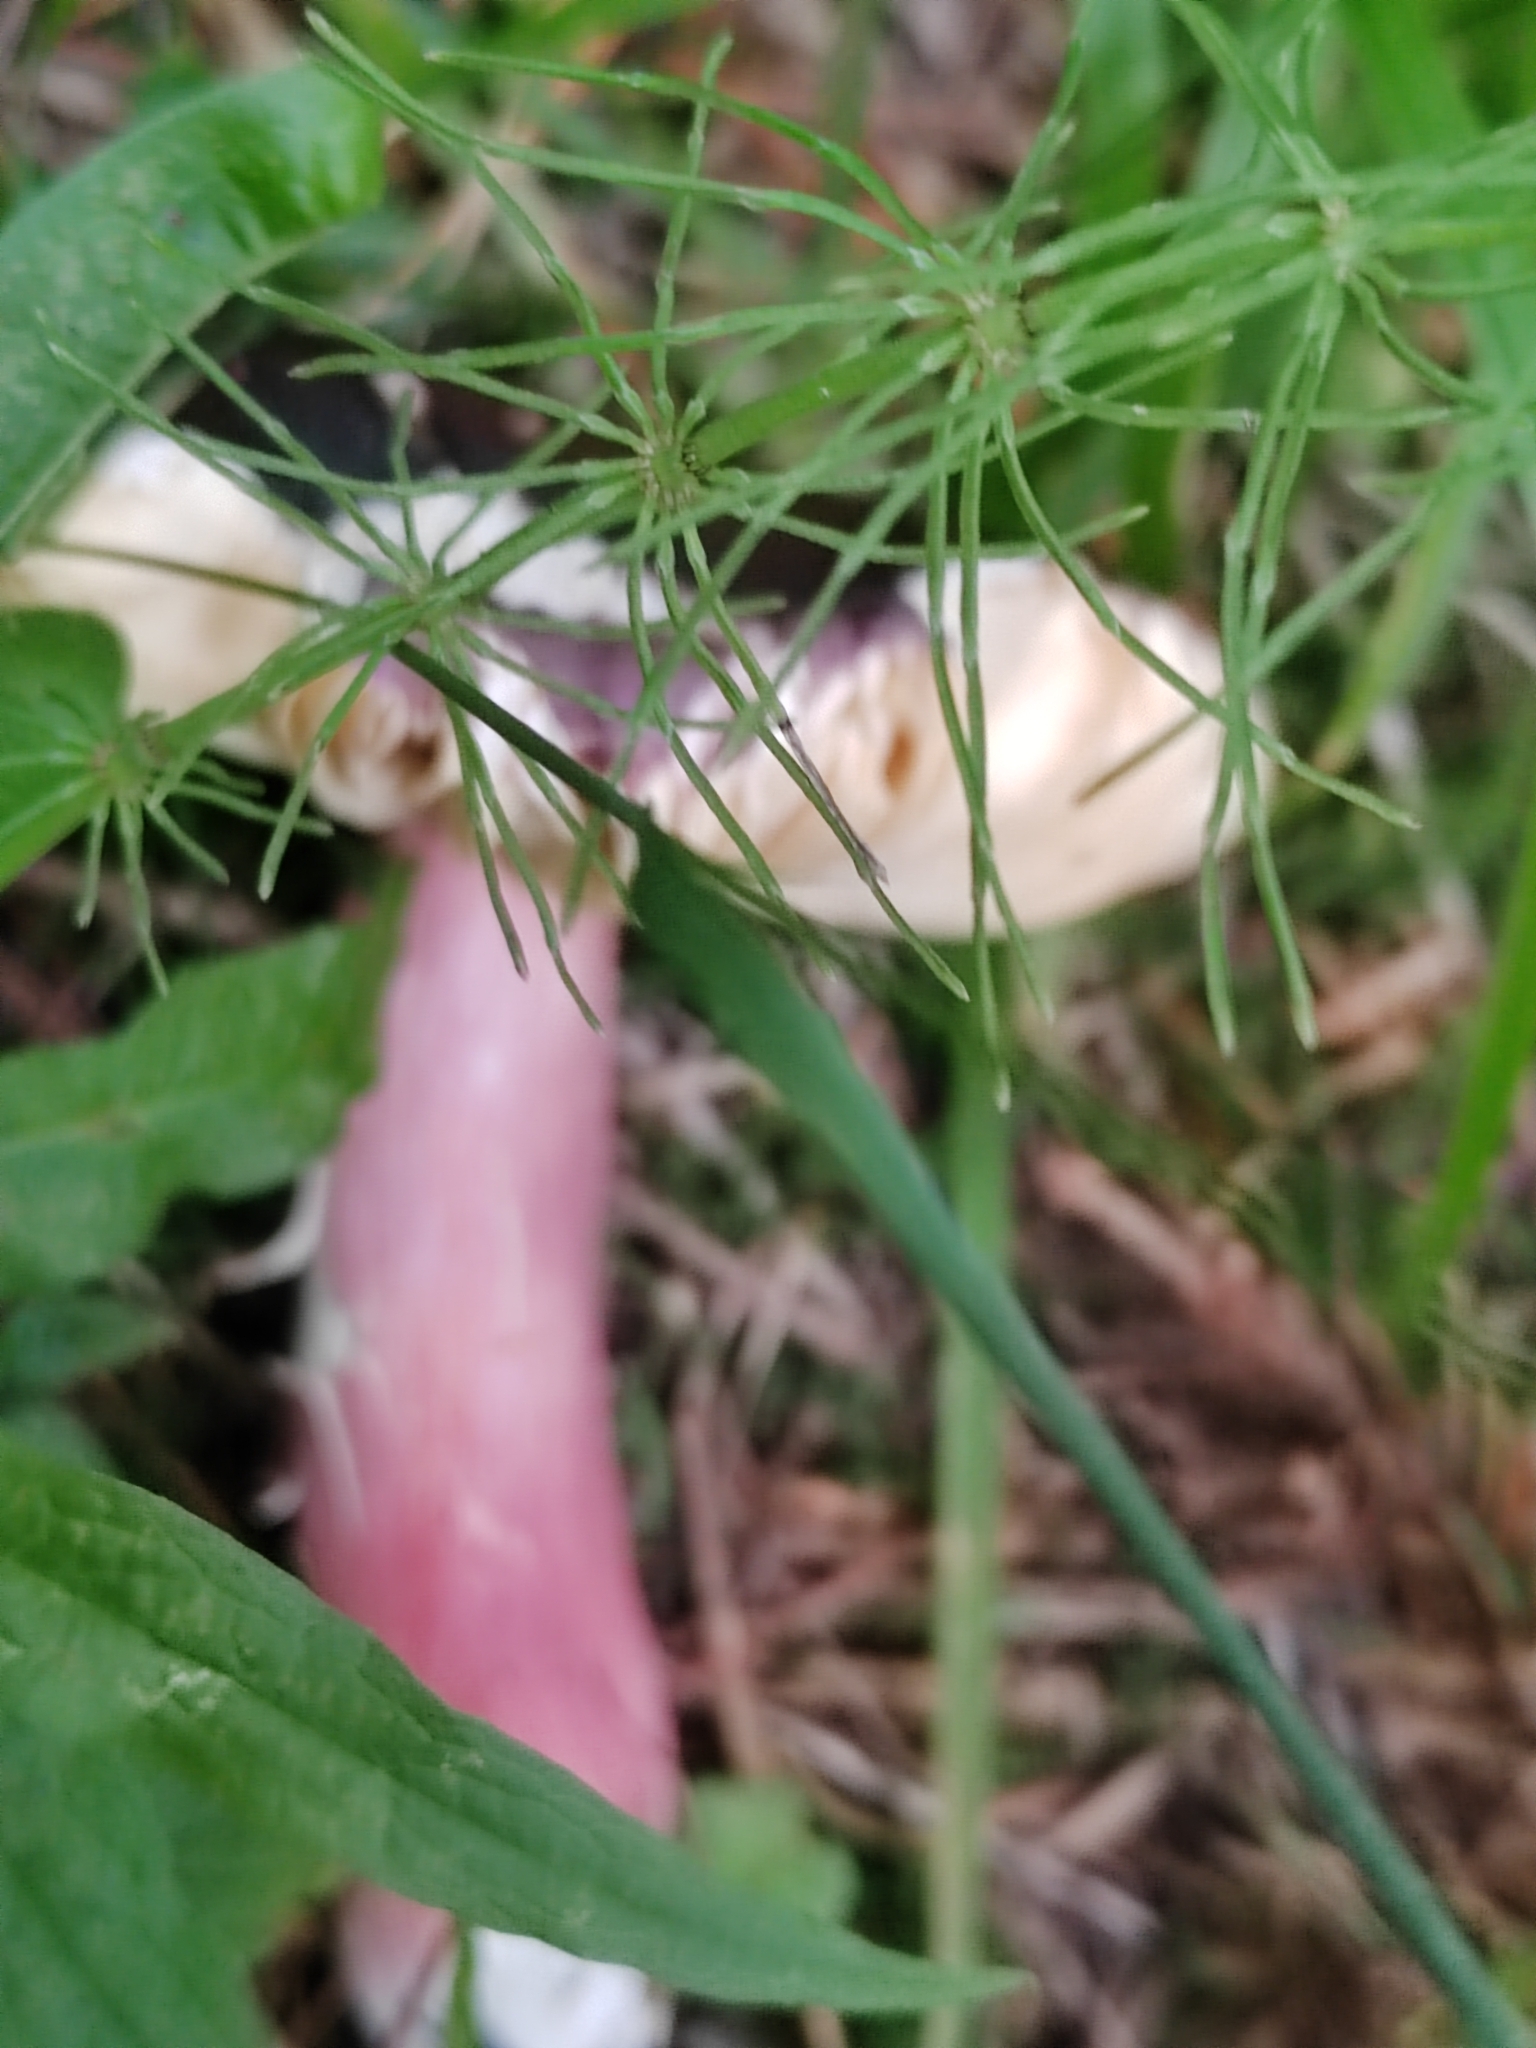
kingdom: Plantae
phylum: Tracheophyta
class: Polypodiopsida
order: Equisetales
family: Equisetaceae
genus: Equisetum
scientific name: Equisetum pratense
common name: Meadow horsetail
